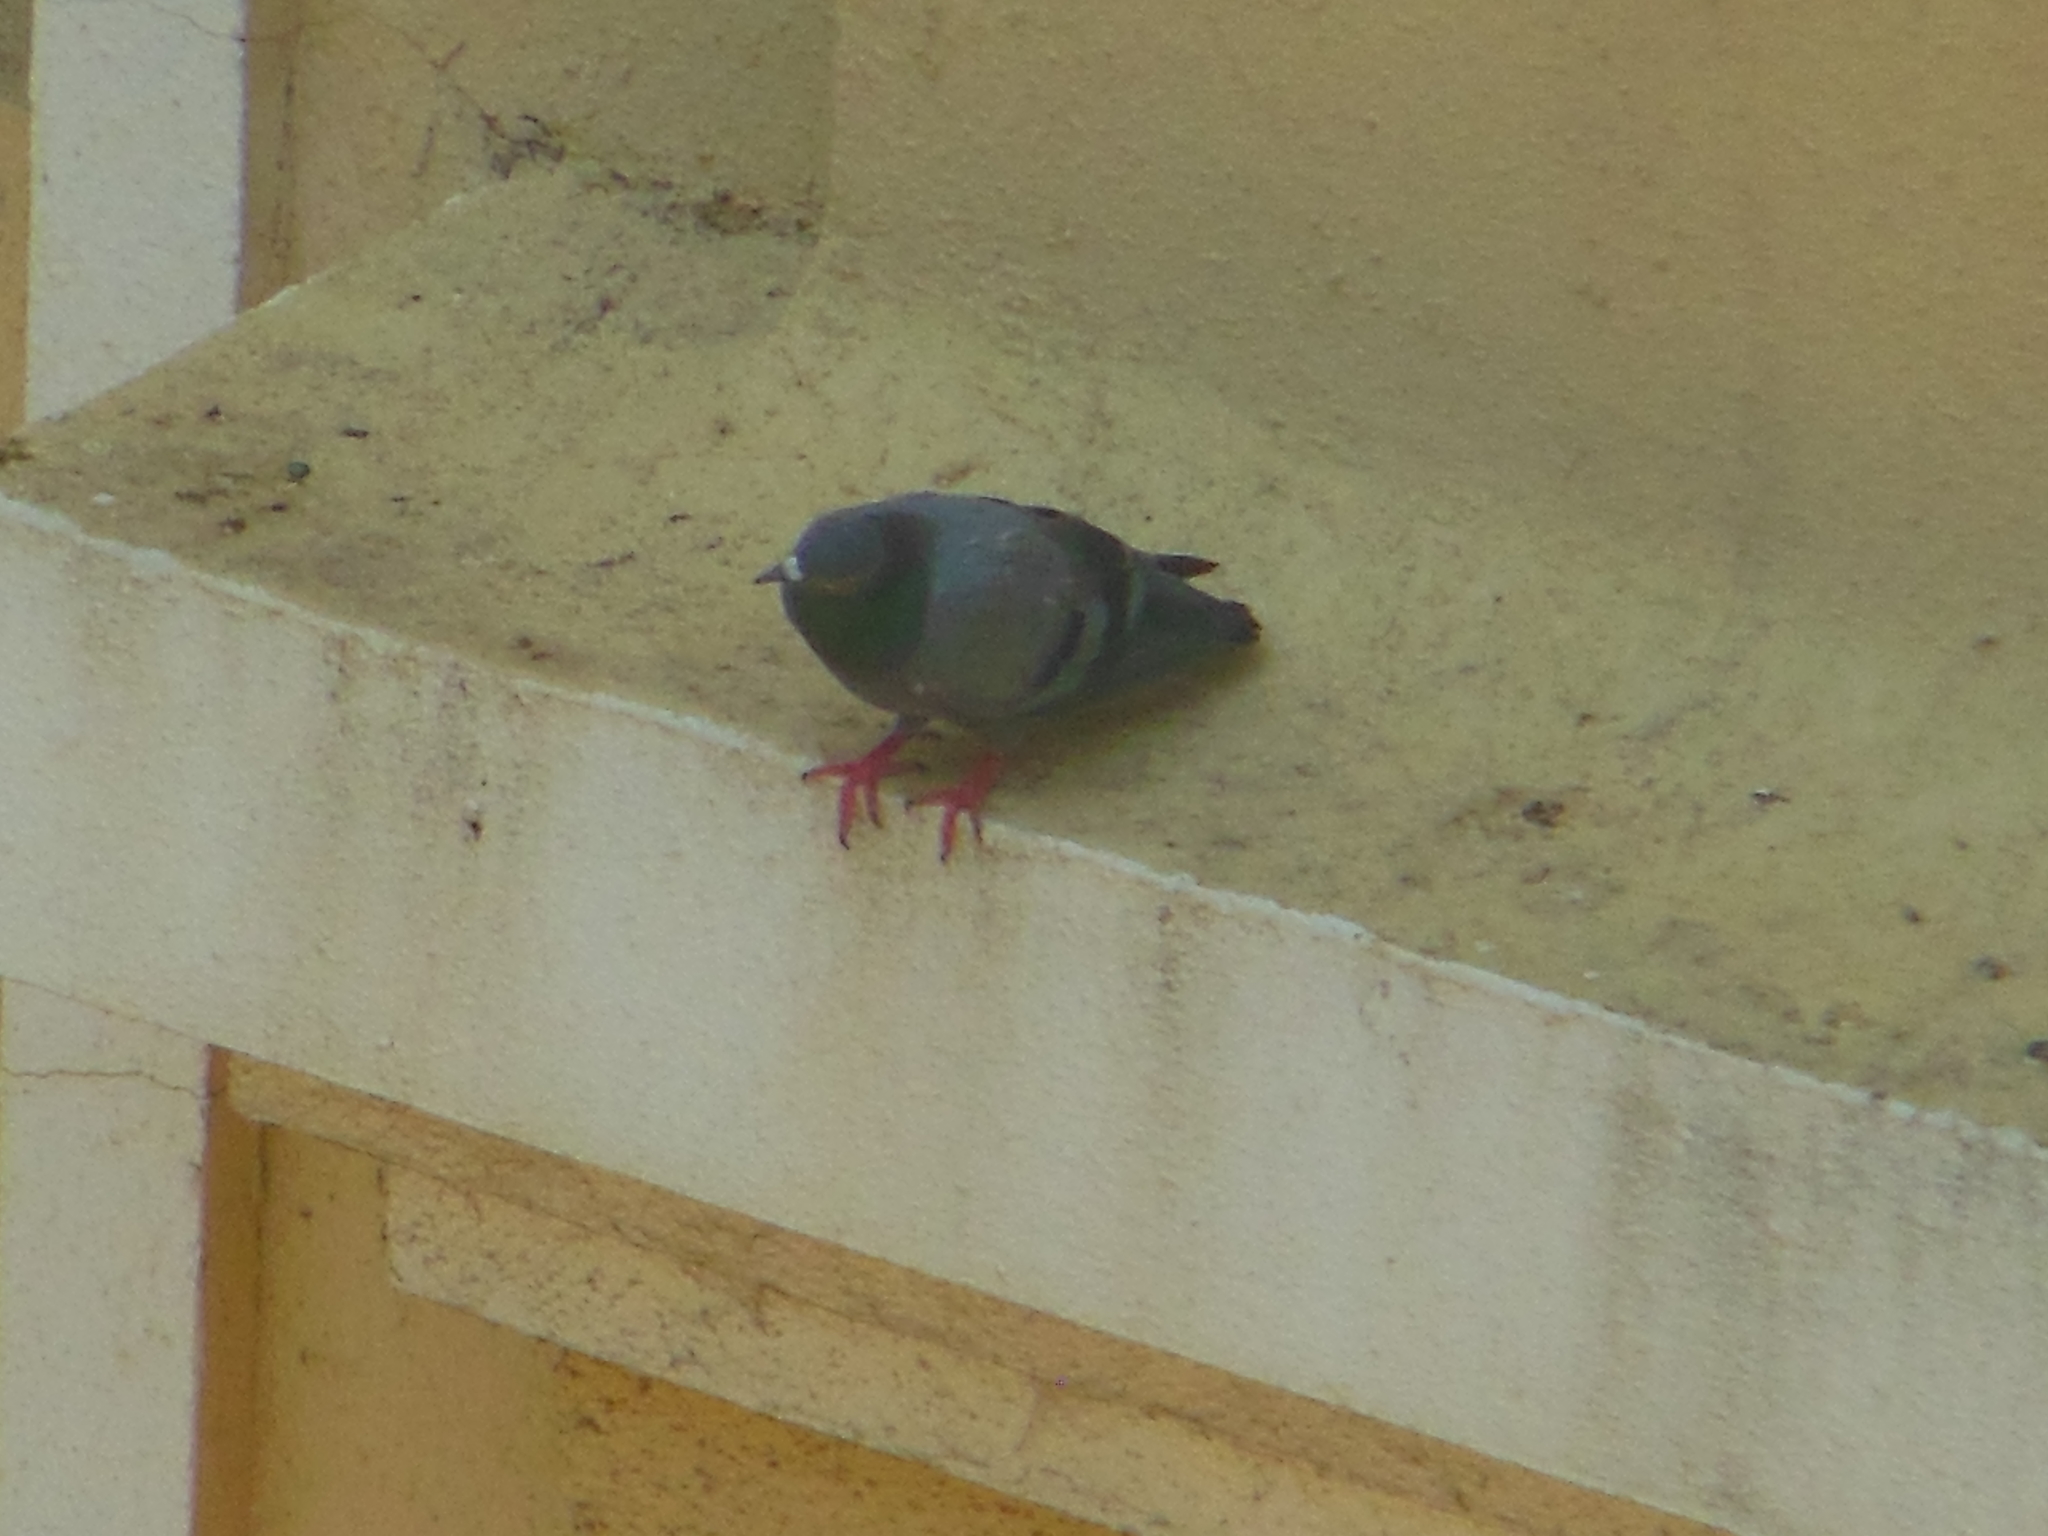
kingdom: Animalia
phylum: Chordata
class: Aves
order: Columbiformes
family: Columbidae
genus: Columba
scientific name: Columba livia
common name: Rock pigeon
